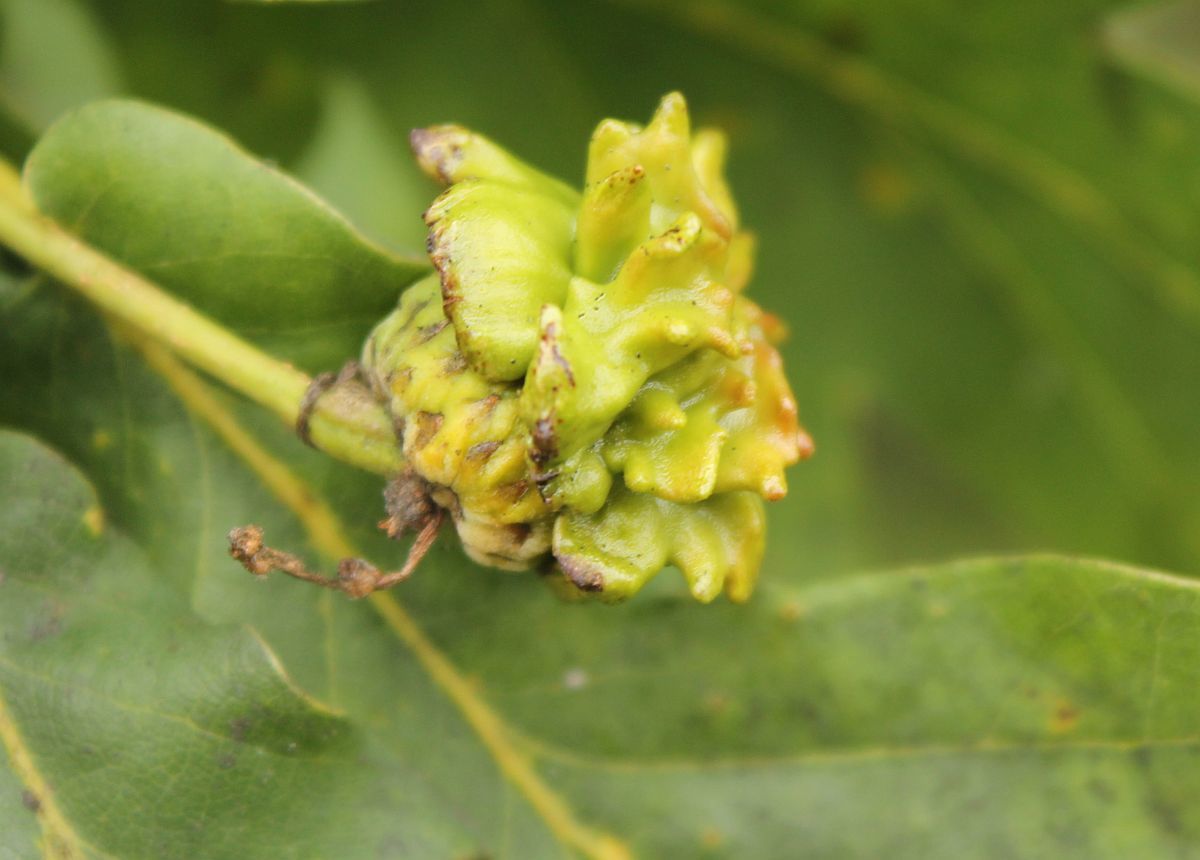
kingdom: Animalia
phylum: Arthropoda
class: Insecta
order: Hymenoptera
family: Cynipidae
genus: Andricus
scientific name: Andricus quercuscalicis
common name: Knopper gall
